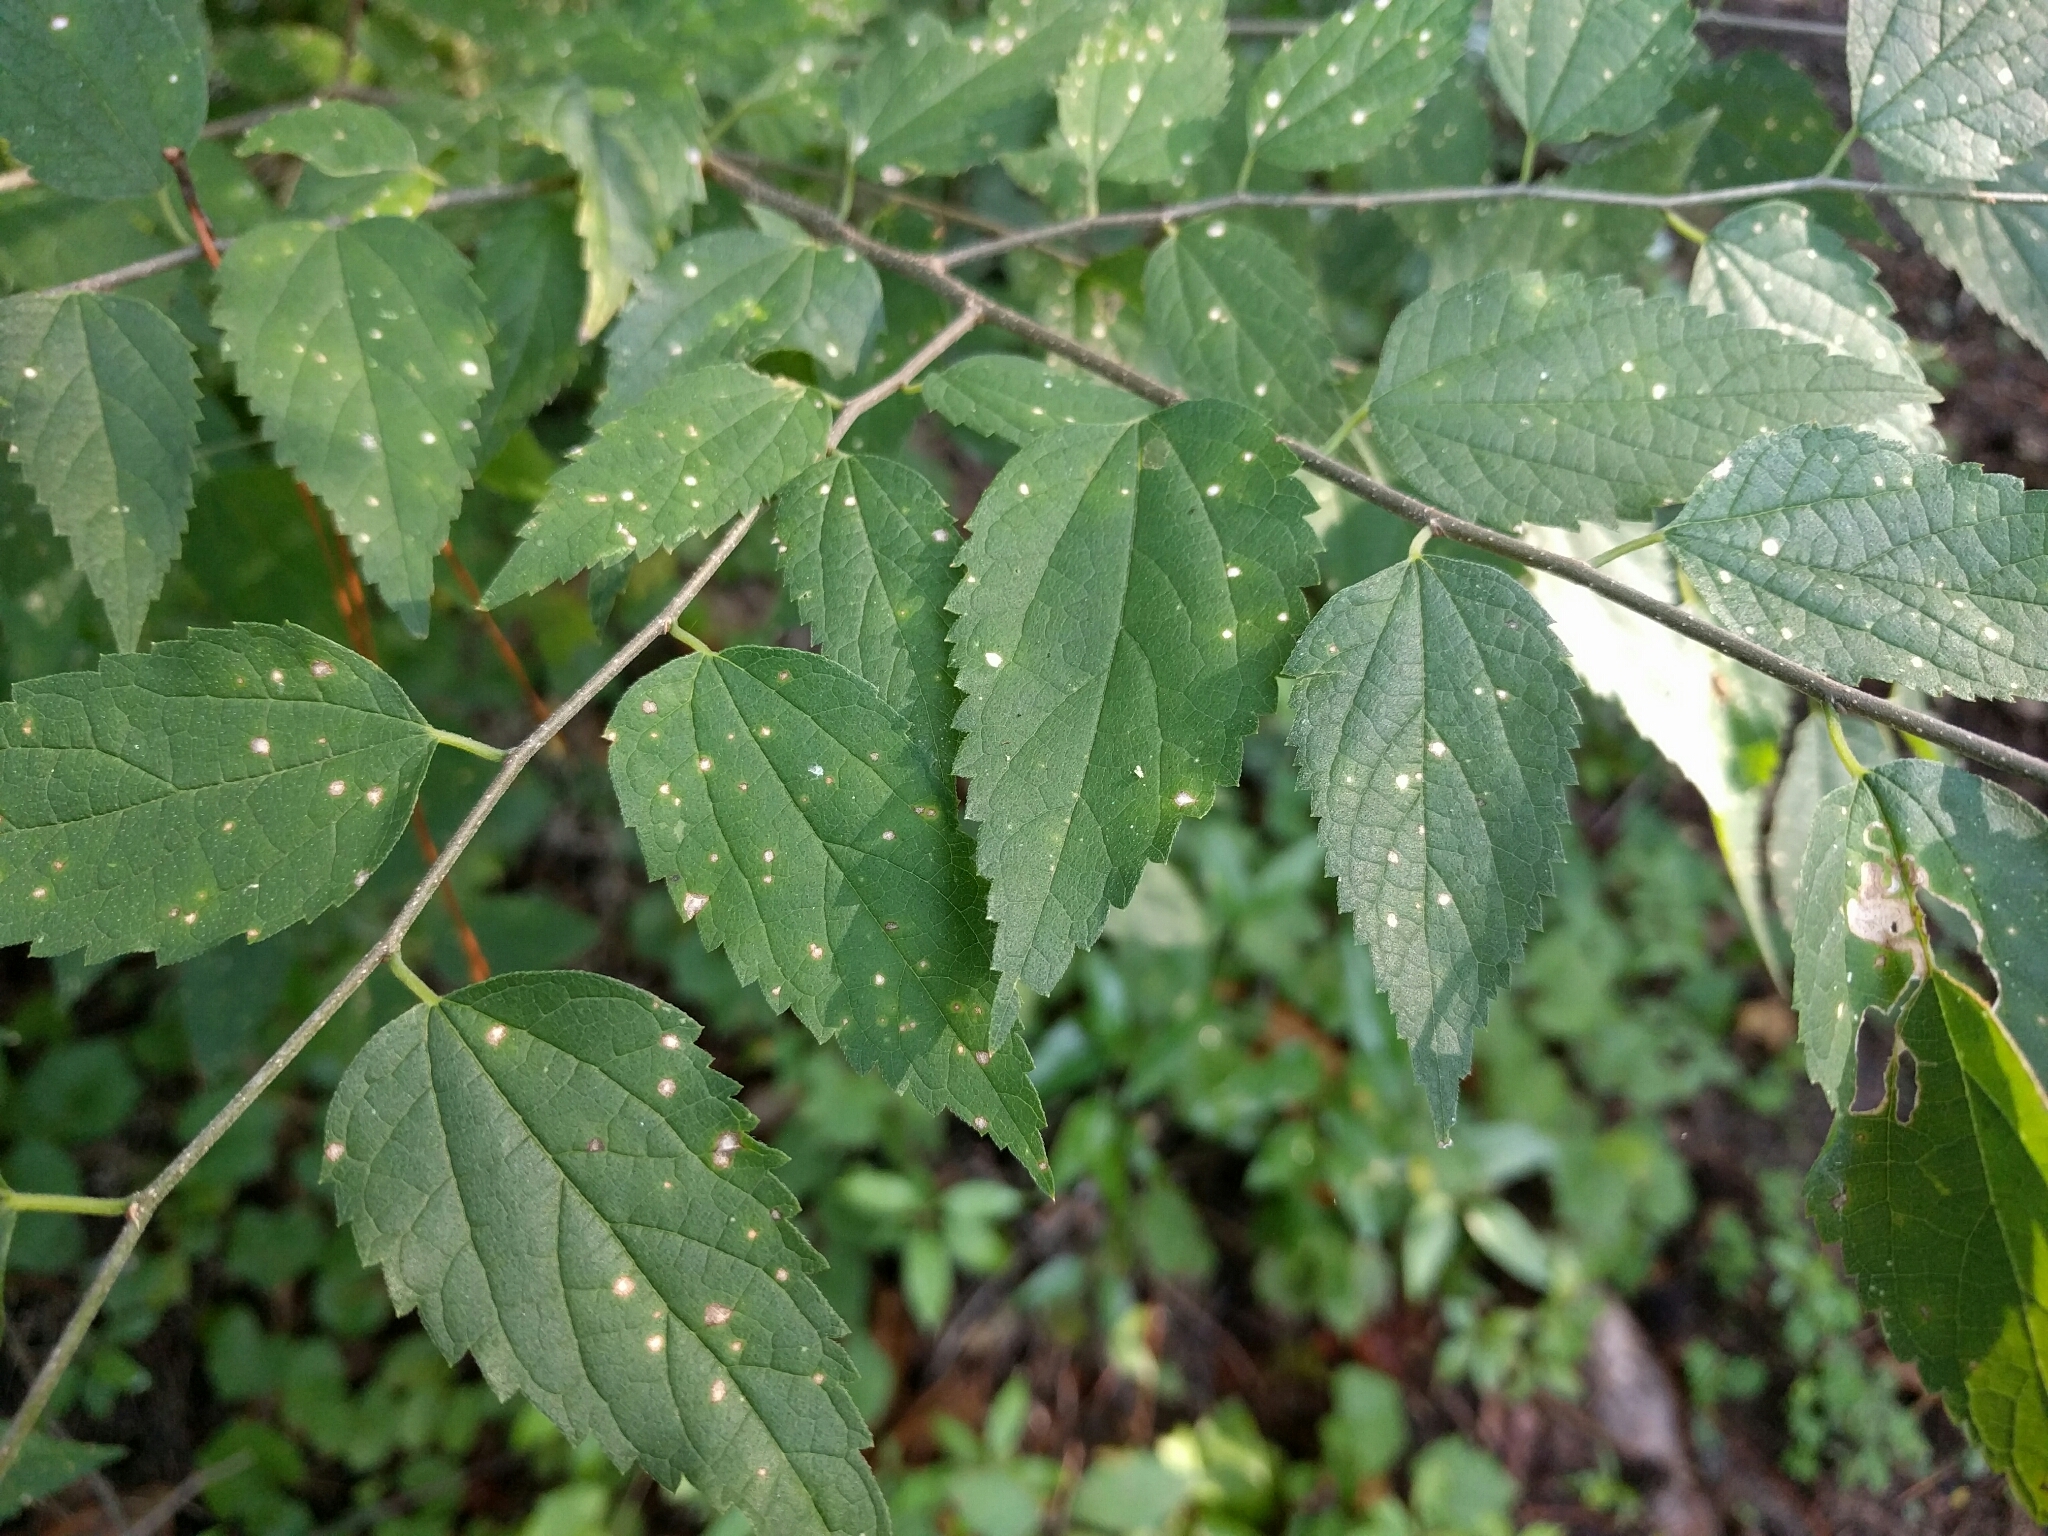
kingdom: Plantae
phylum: Tracheophyta
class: Magnoliopsida
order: Rosales
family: Cannabaceae
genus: Celtis
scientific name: Celtis laevigata
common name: Sugarberry
